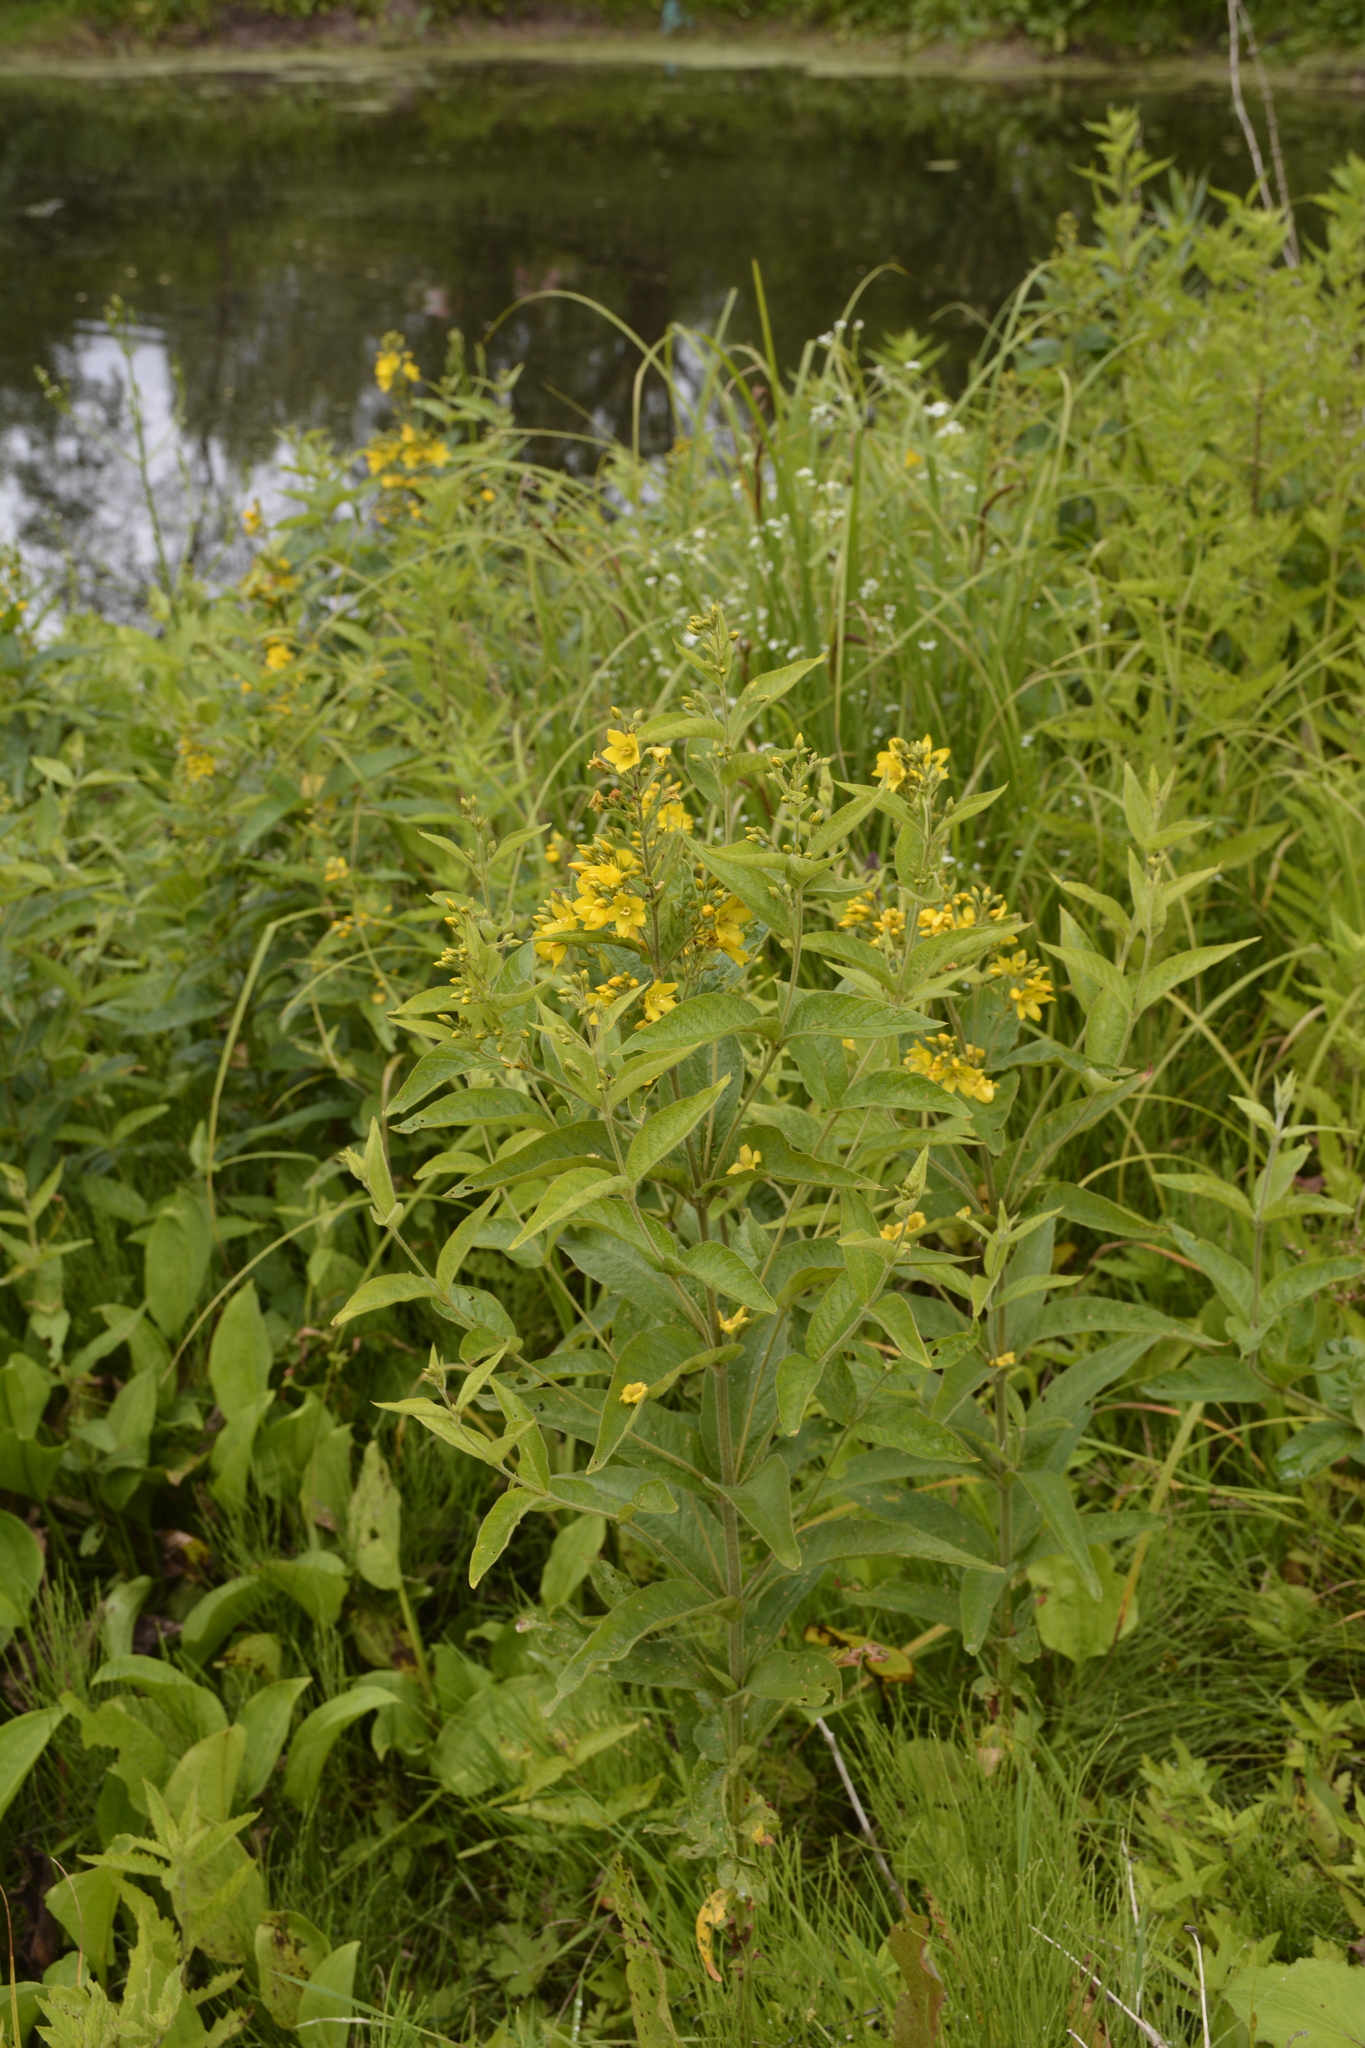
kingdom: Plantae
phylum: Tracheophyta
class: Magnoliopsida
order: Ericales
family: Primulaceae
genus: Lysimachia
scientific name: Lysimachia vulgaris
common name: Yellow loosestrife
